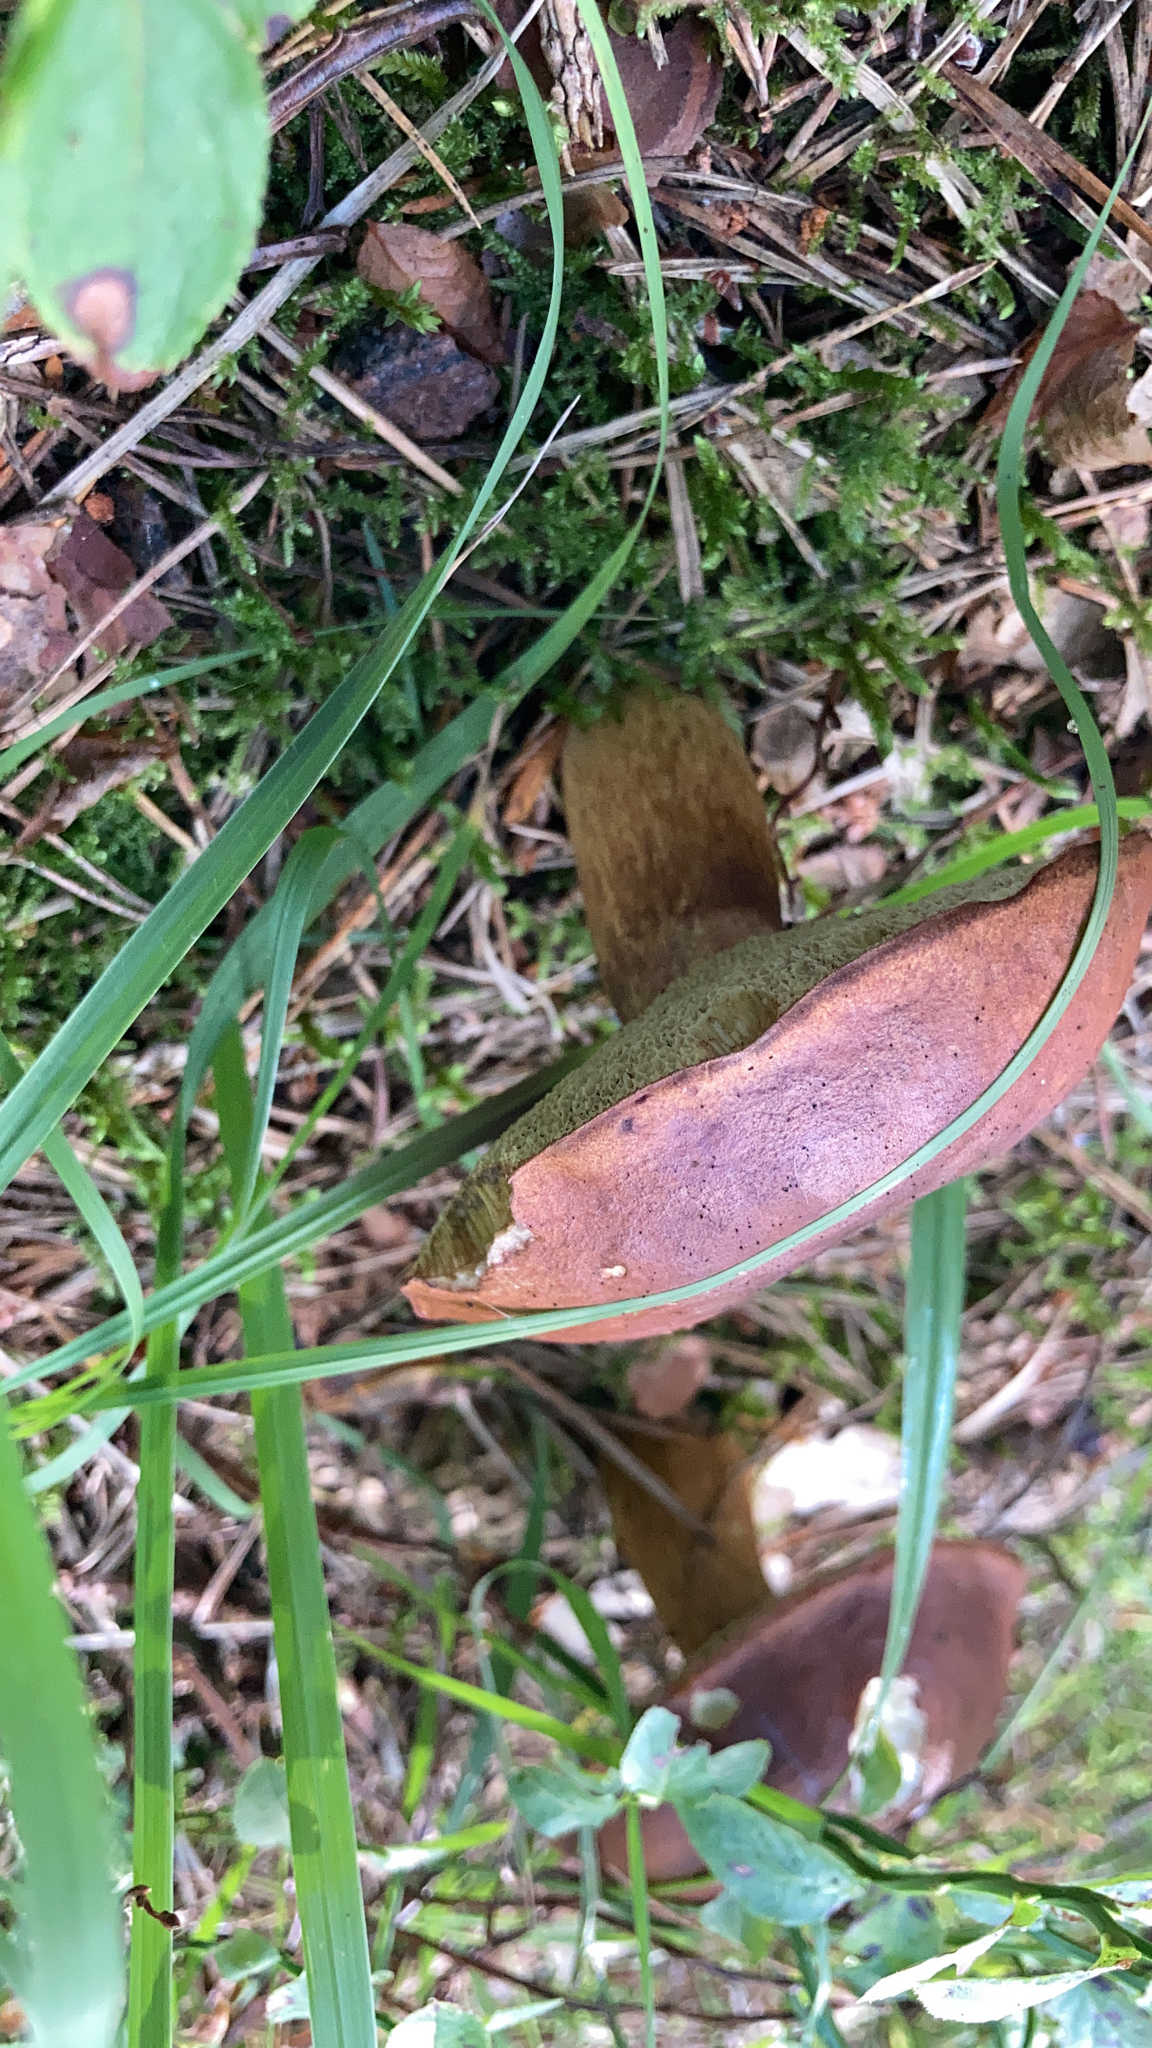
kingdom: Fungi
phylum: Basidiomycota
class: Agaricomycetes
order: Boletales
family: Boletaceae
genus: Imleria
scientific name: Imleria badia
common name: Bay bolete
